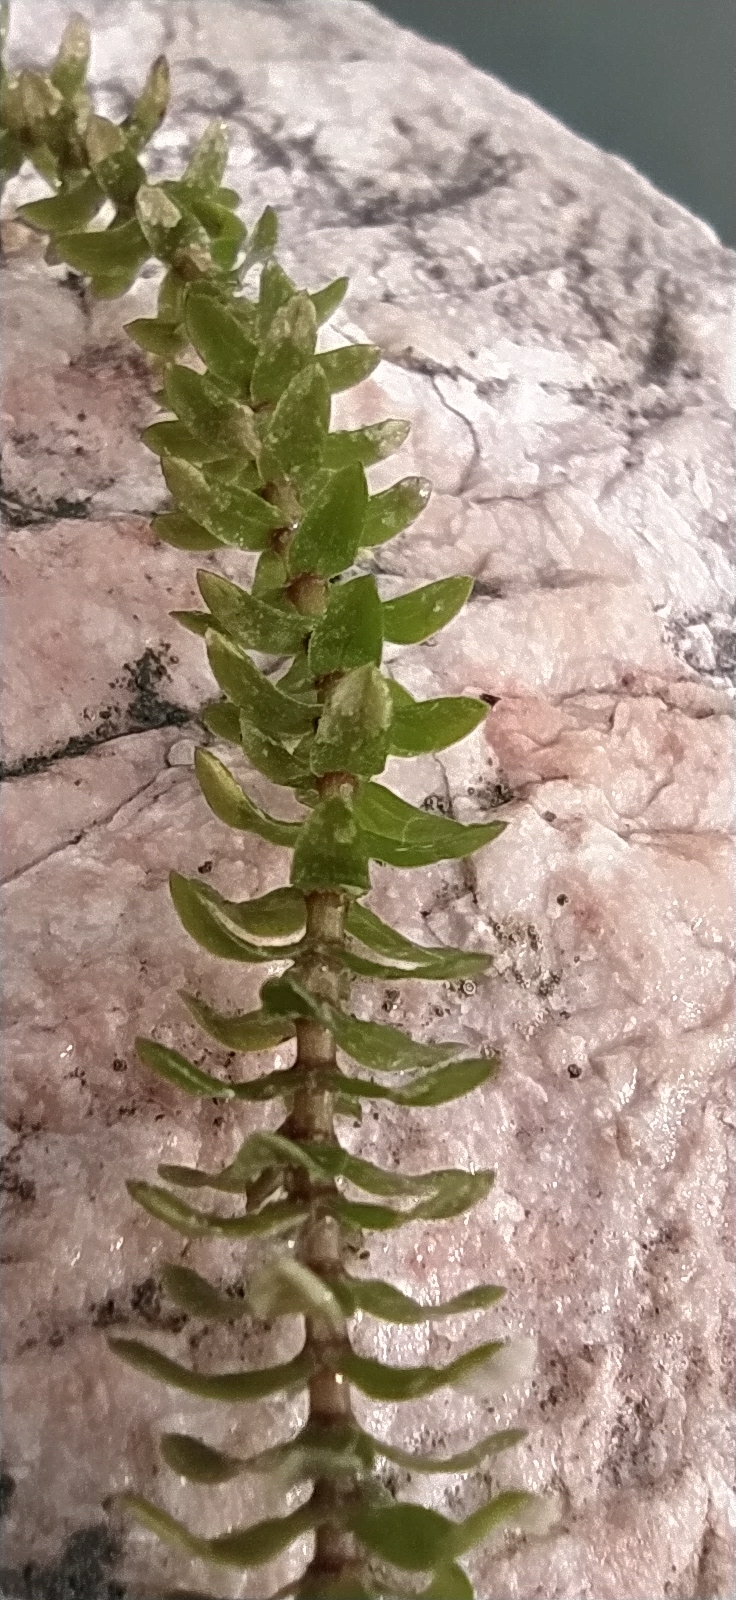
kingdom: Plantae
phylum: Tracheophyta
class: Liliopsida
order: Alismatales
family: Hydrocharitaceae
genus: Elodea
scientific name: Elodea canadensis
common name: Canadian waterweed
